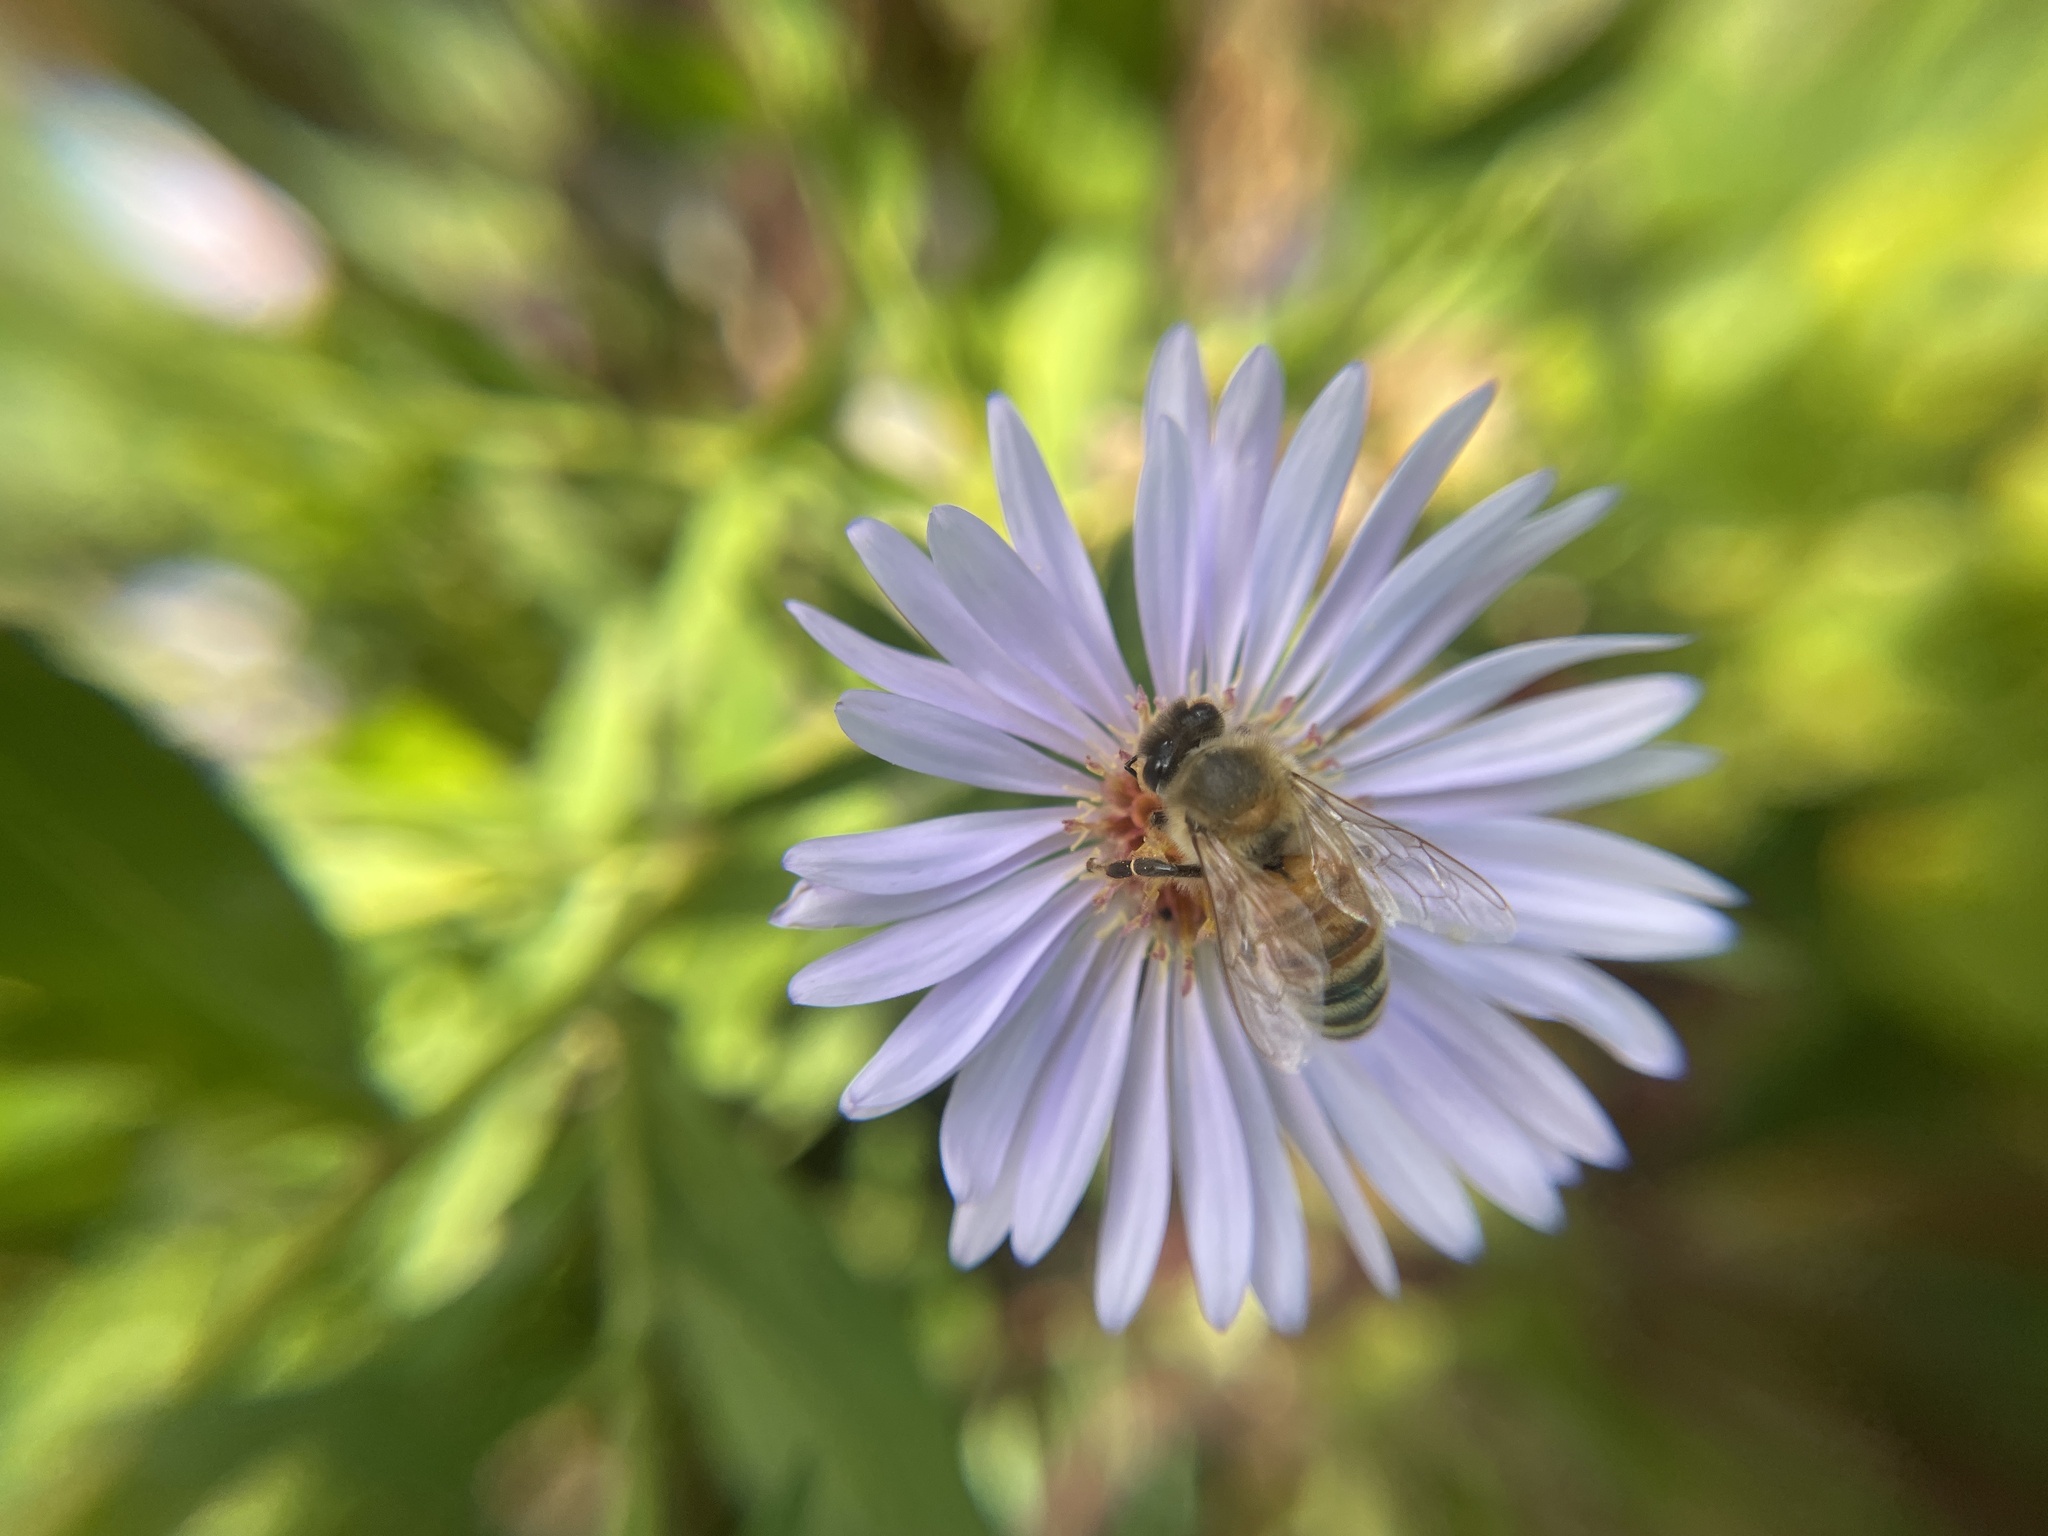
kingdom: Animalia
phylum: Arthropoda
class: Insecta
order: Hymenoptera
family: Apidae
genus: Apis
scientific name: Apis mellifera
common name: Honey bee
